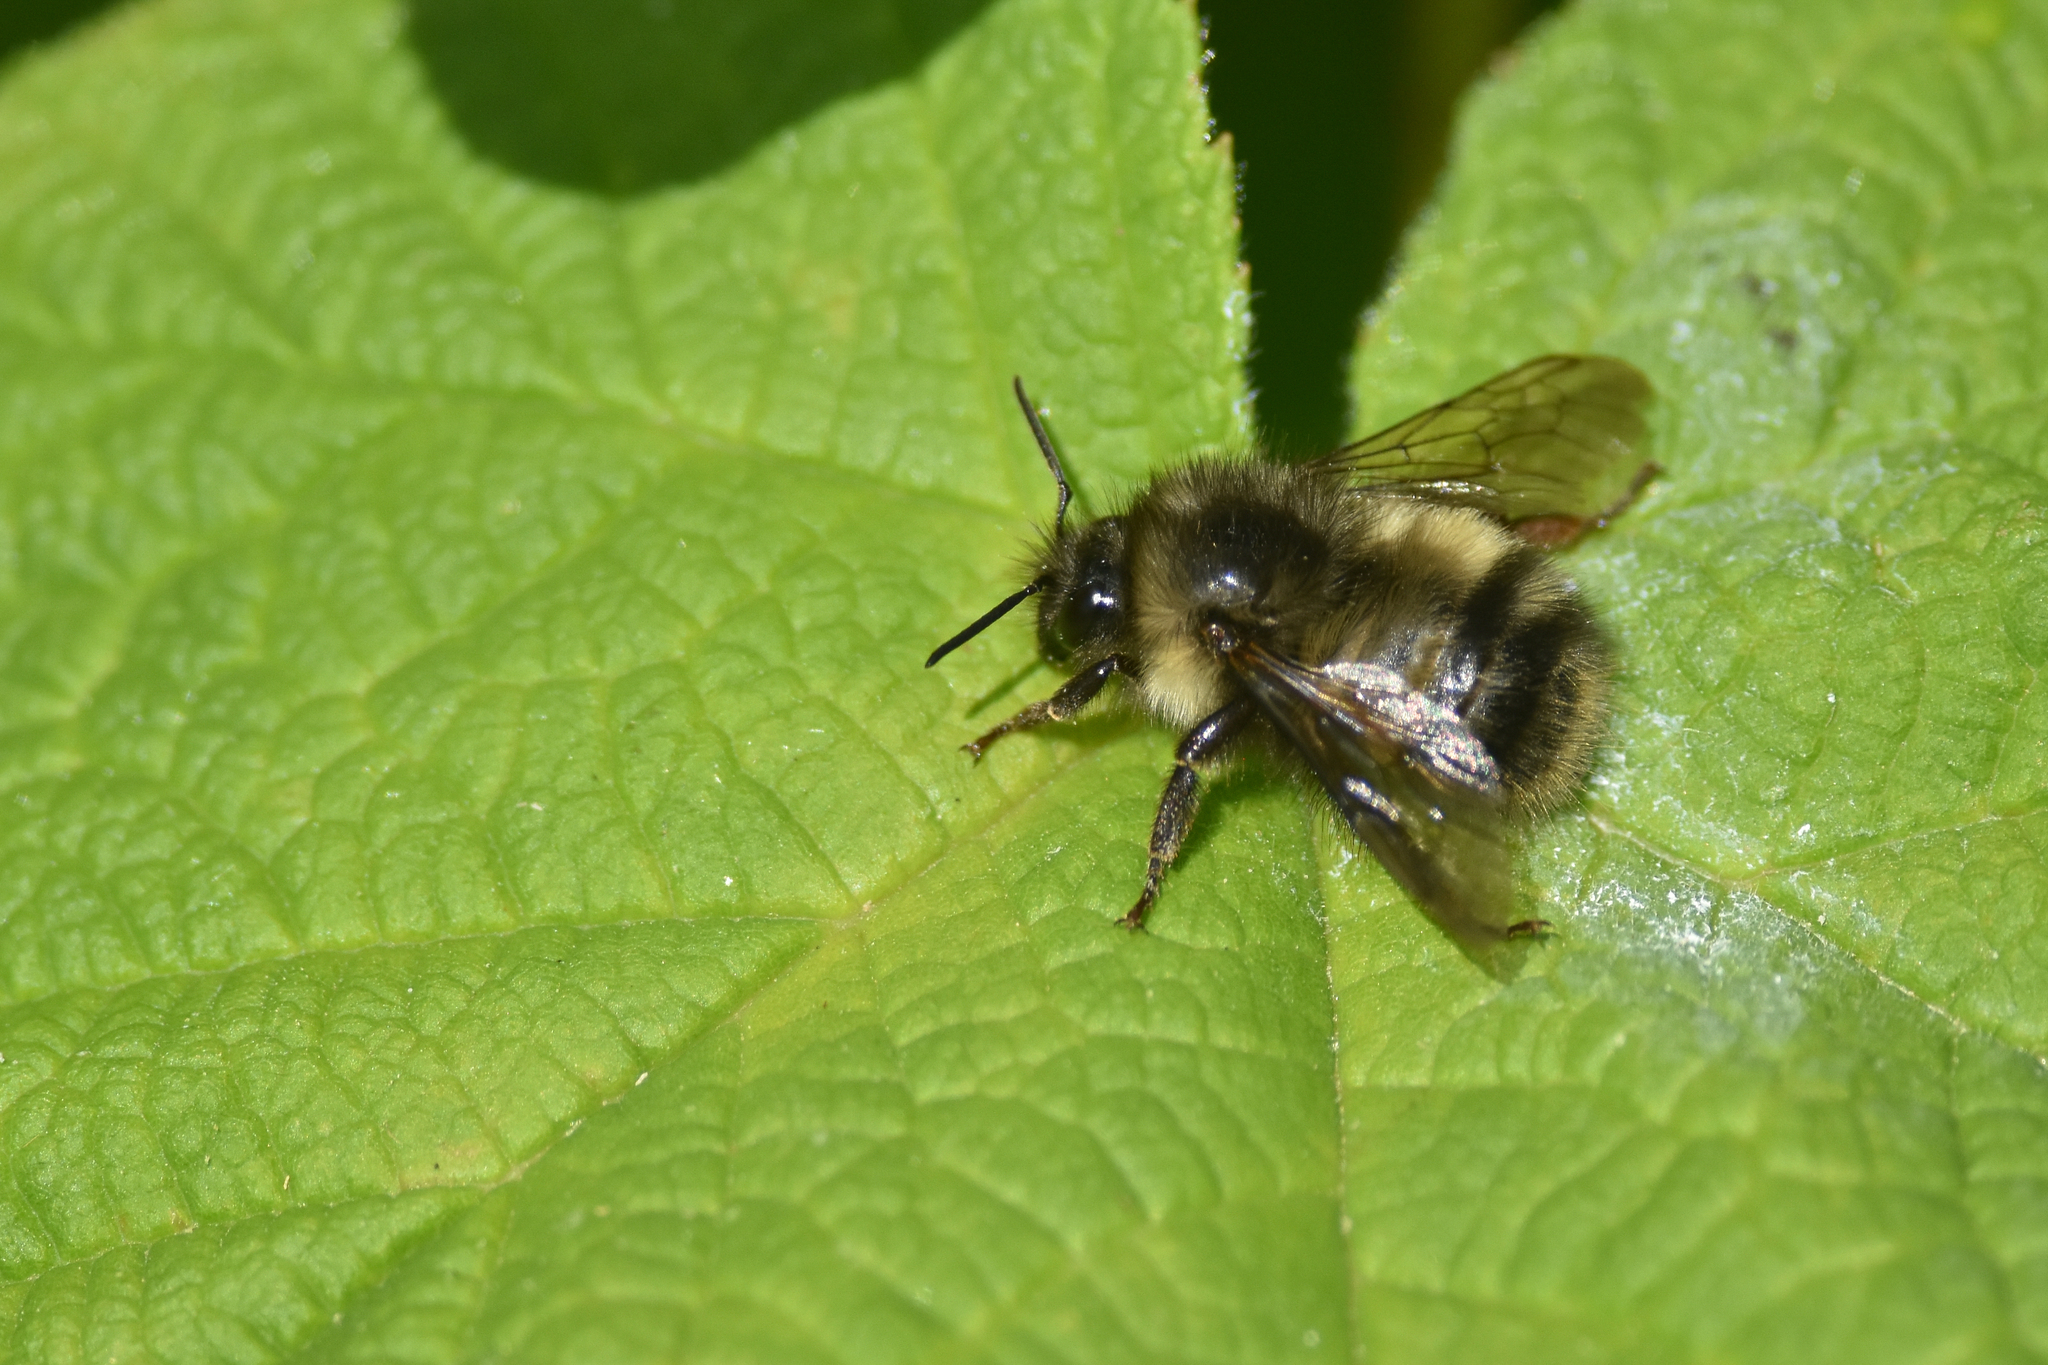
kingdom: Animalia
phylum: Arthropoda
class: Insecta
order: Hymenoptera
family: Apidae
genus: Bombus
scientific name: Bombus sitkensis
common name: Sitka bumble bee
